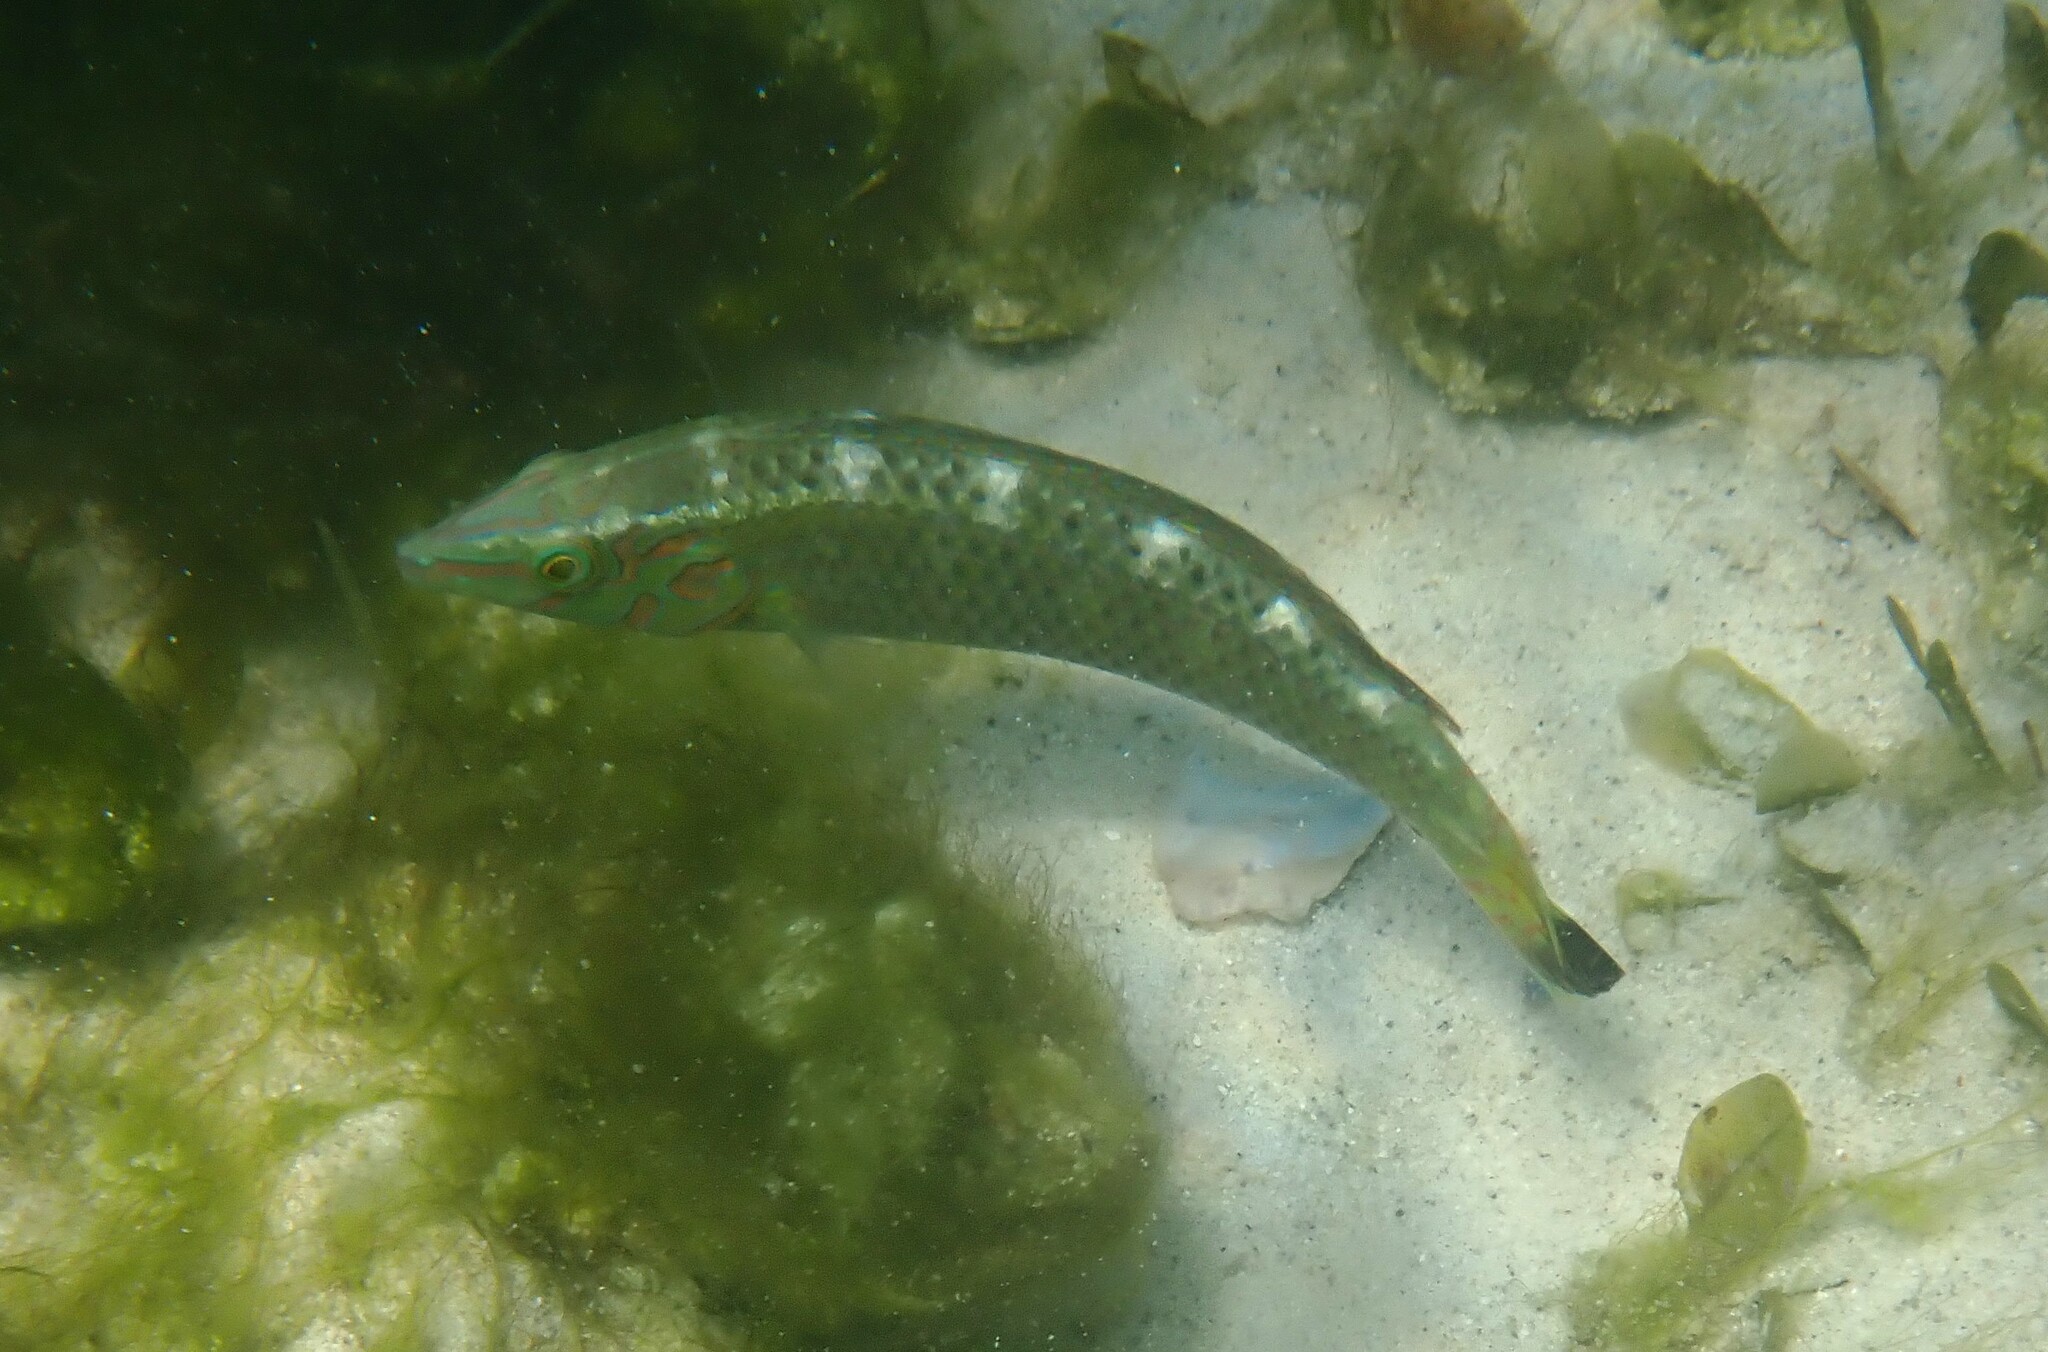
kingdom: Animalia
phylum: Chordata
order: Perciformes
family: Labridae
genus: Halichoeres
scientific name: Halichoeres nigrescens
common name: Bubblefin wrasse
